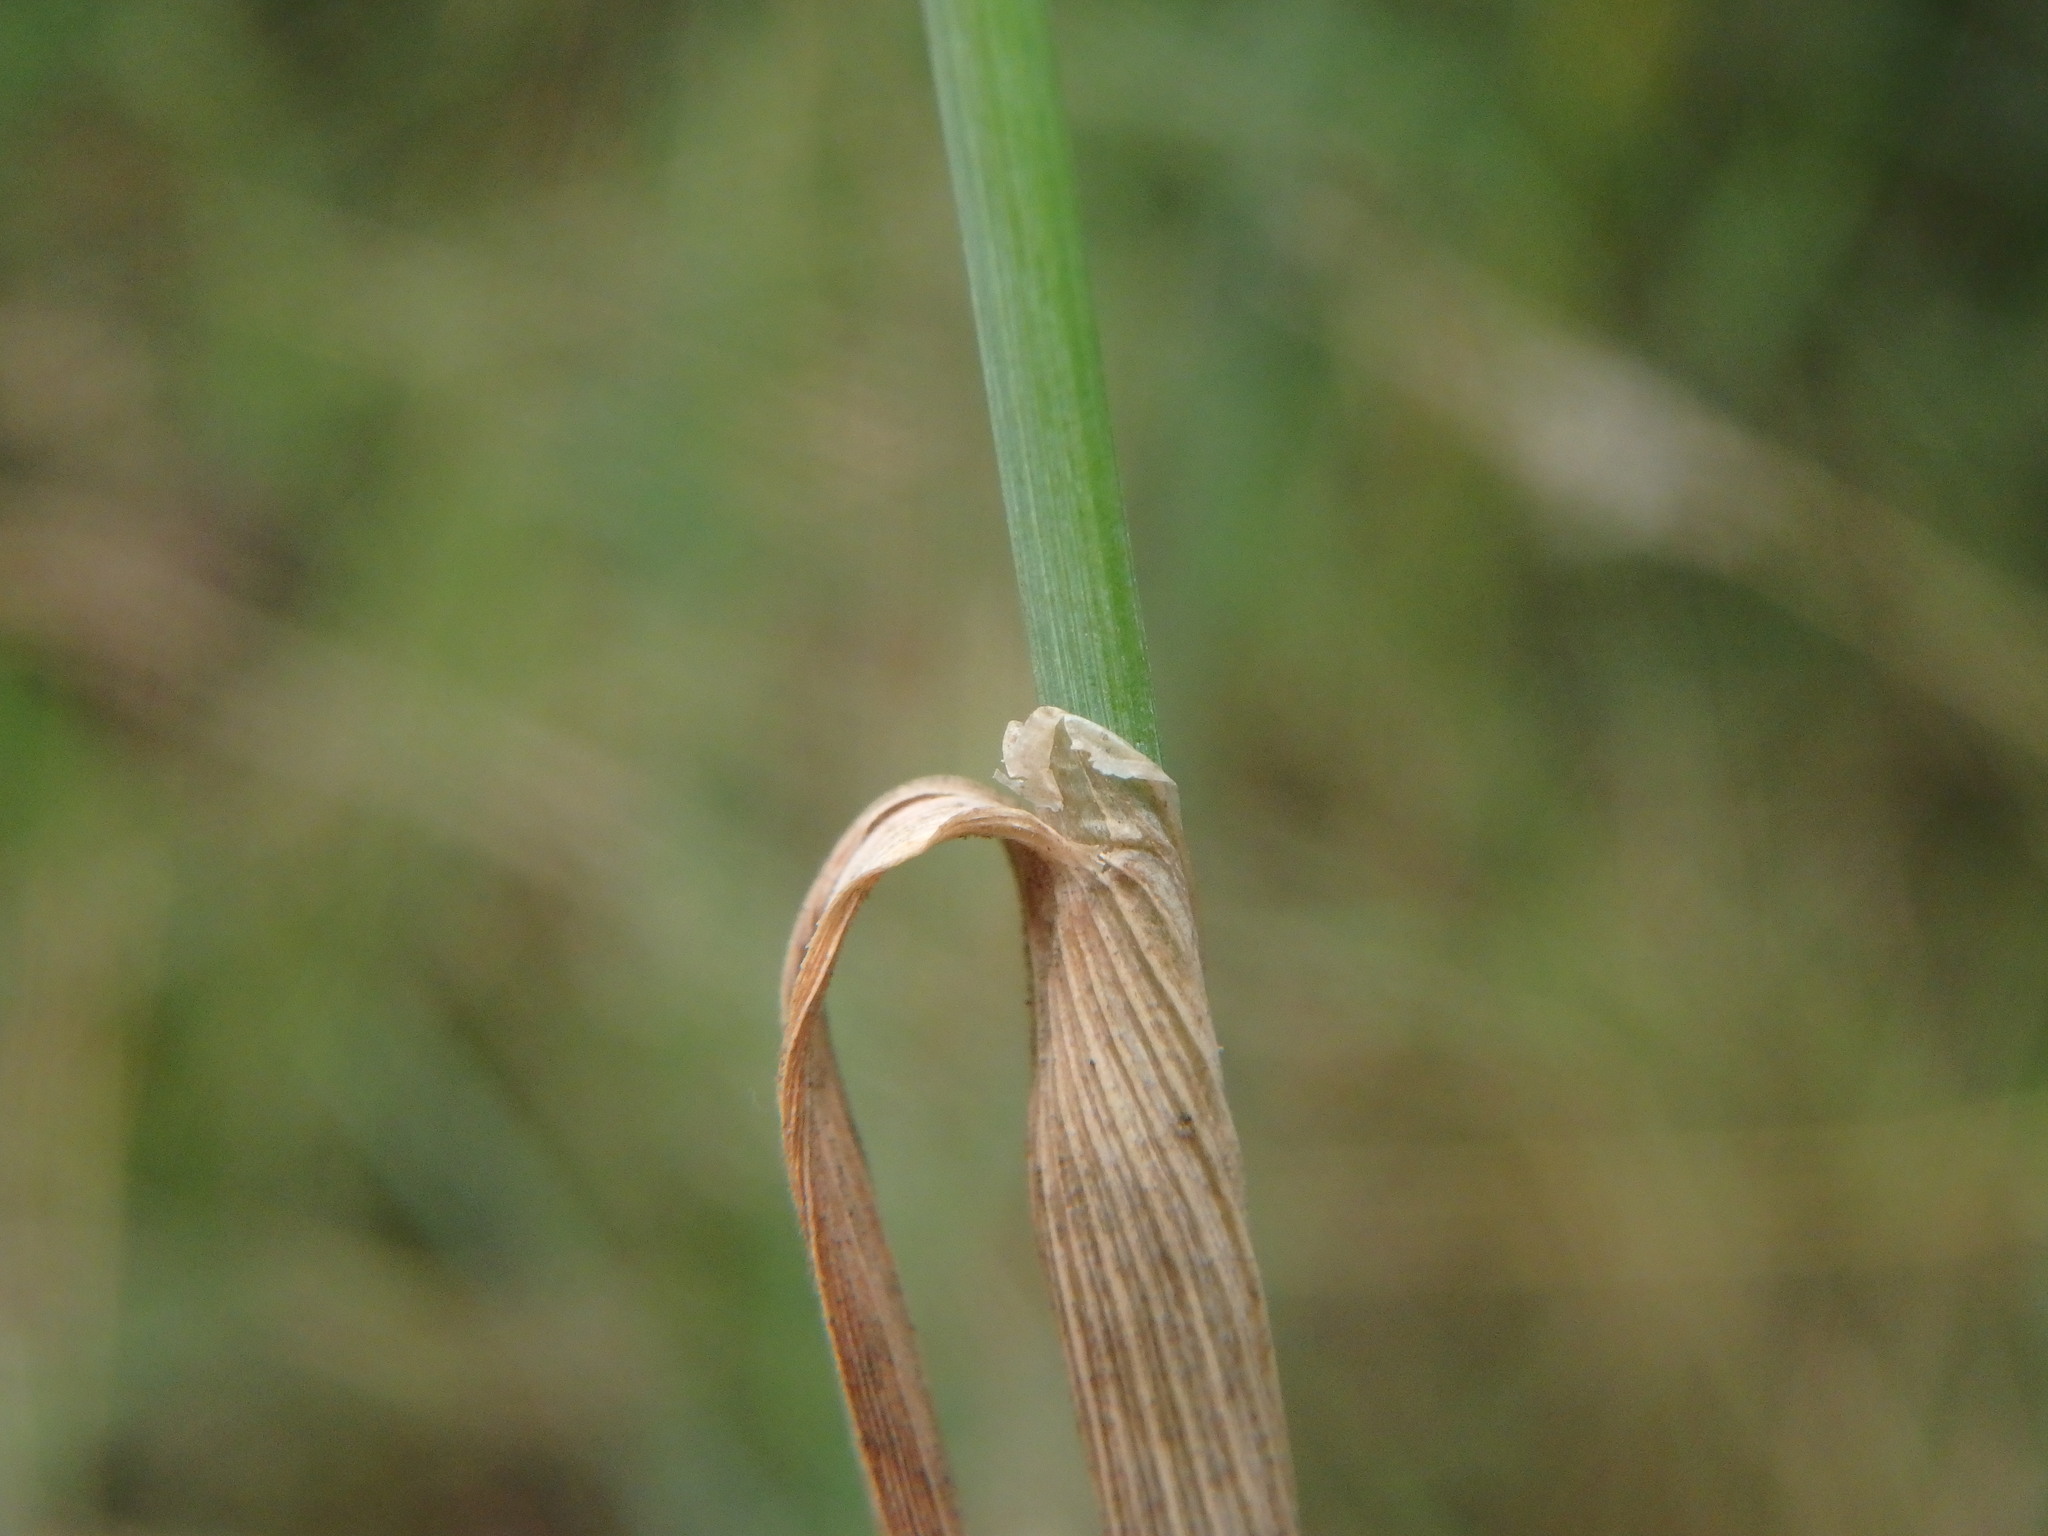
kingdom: Plantae
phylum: Tracheophyta
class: Liliopsida
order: Poales
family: Poaceae
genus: Phleum
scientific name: Phleum pratense
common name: Timothy grass
